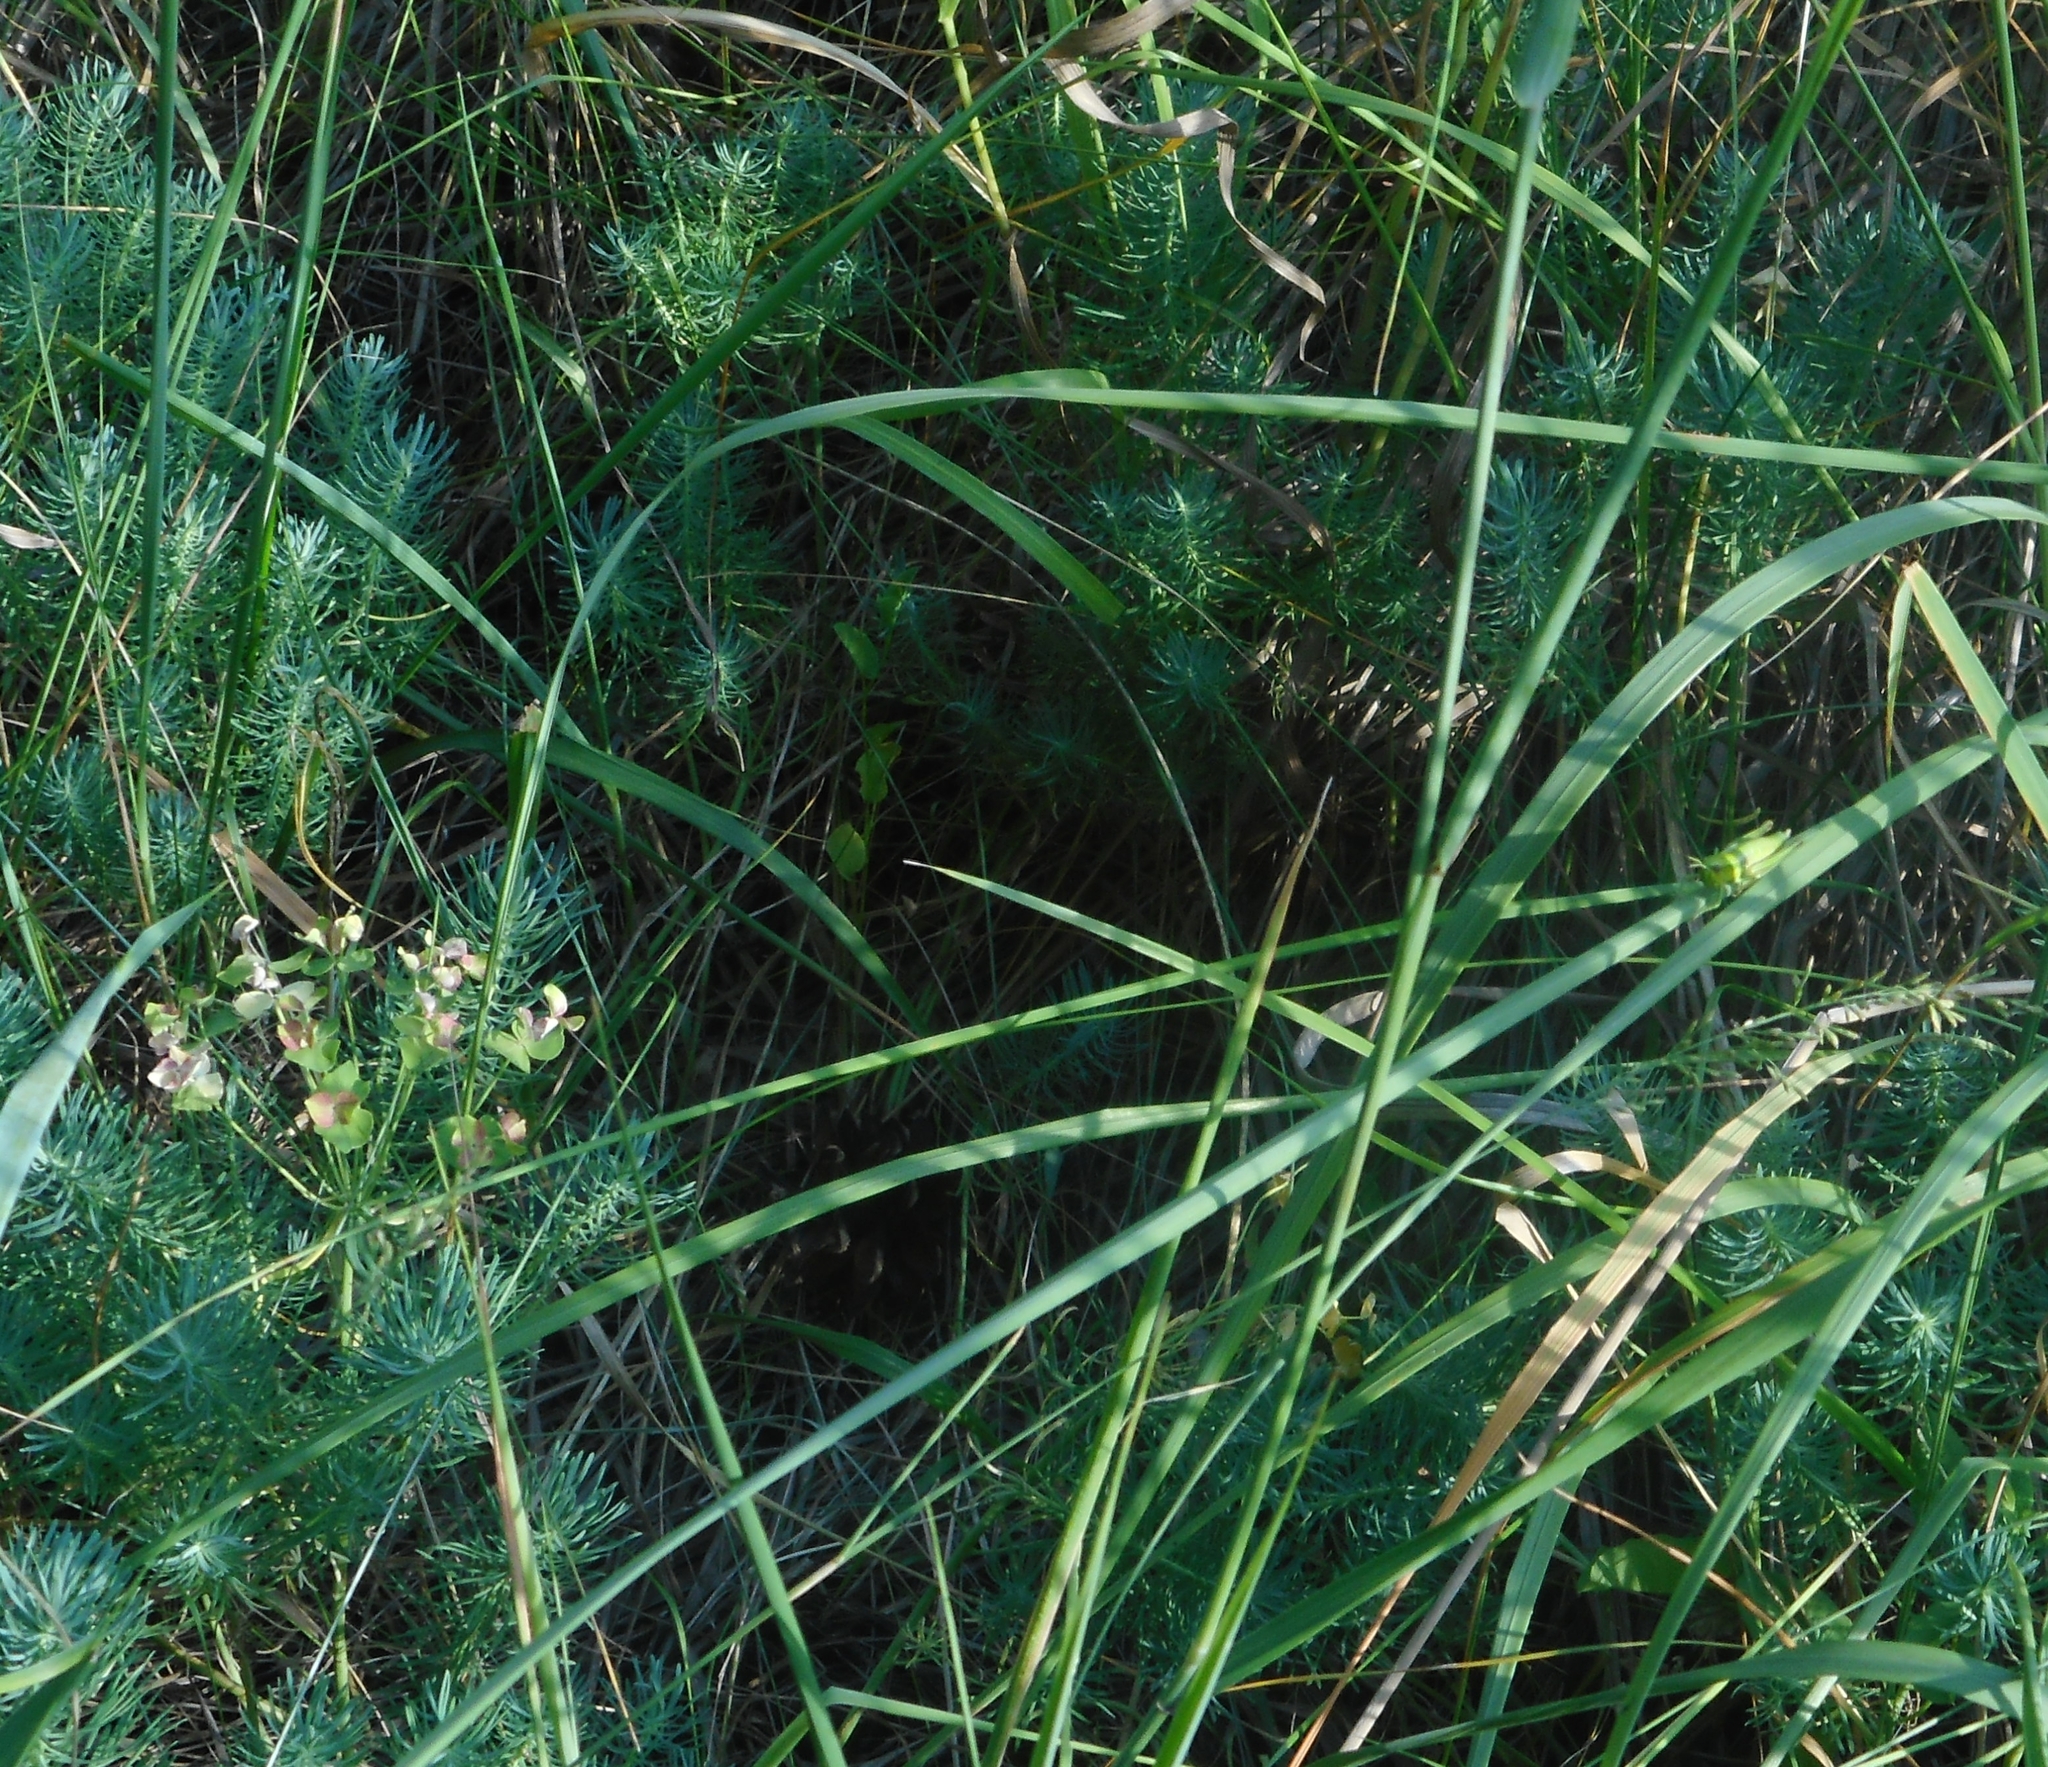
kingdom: Plantae
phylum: Tracheophyta
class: Magnoliopsida
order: Malpighiales
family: Euphorbiaceae
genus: Euphorbia
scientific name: Euphorbia cyparissias
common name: Cypress spurge
